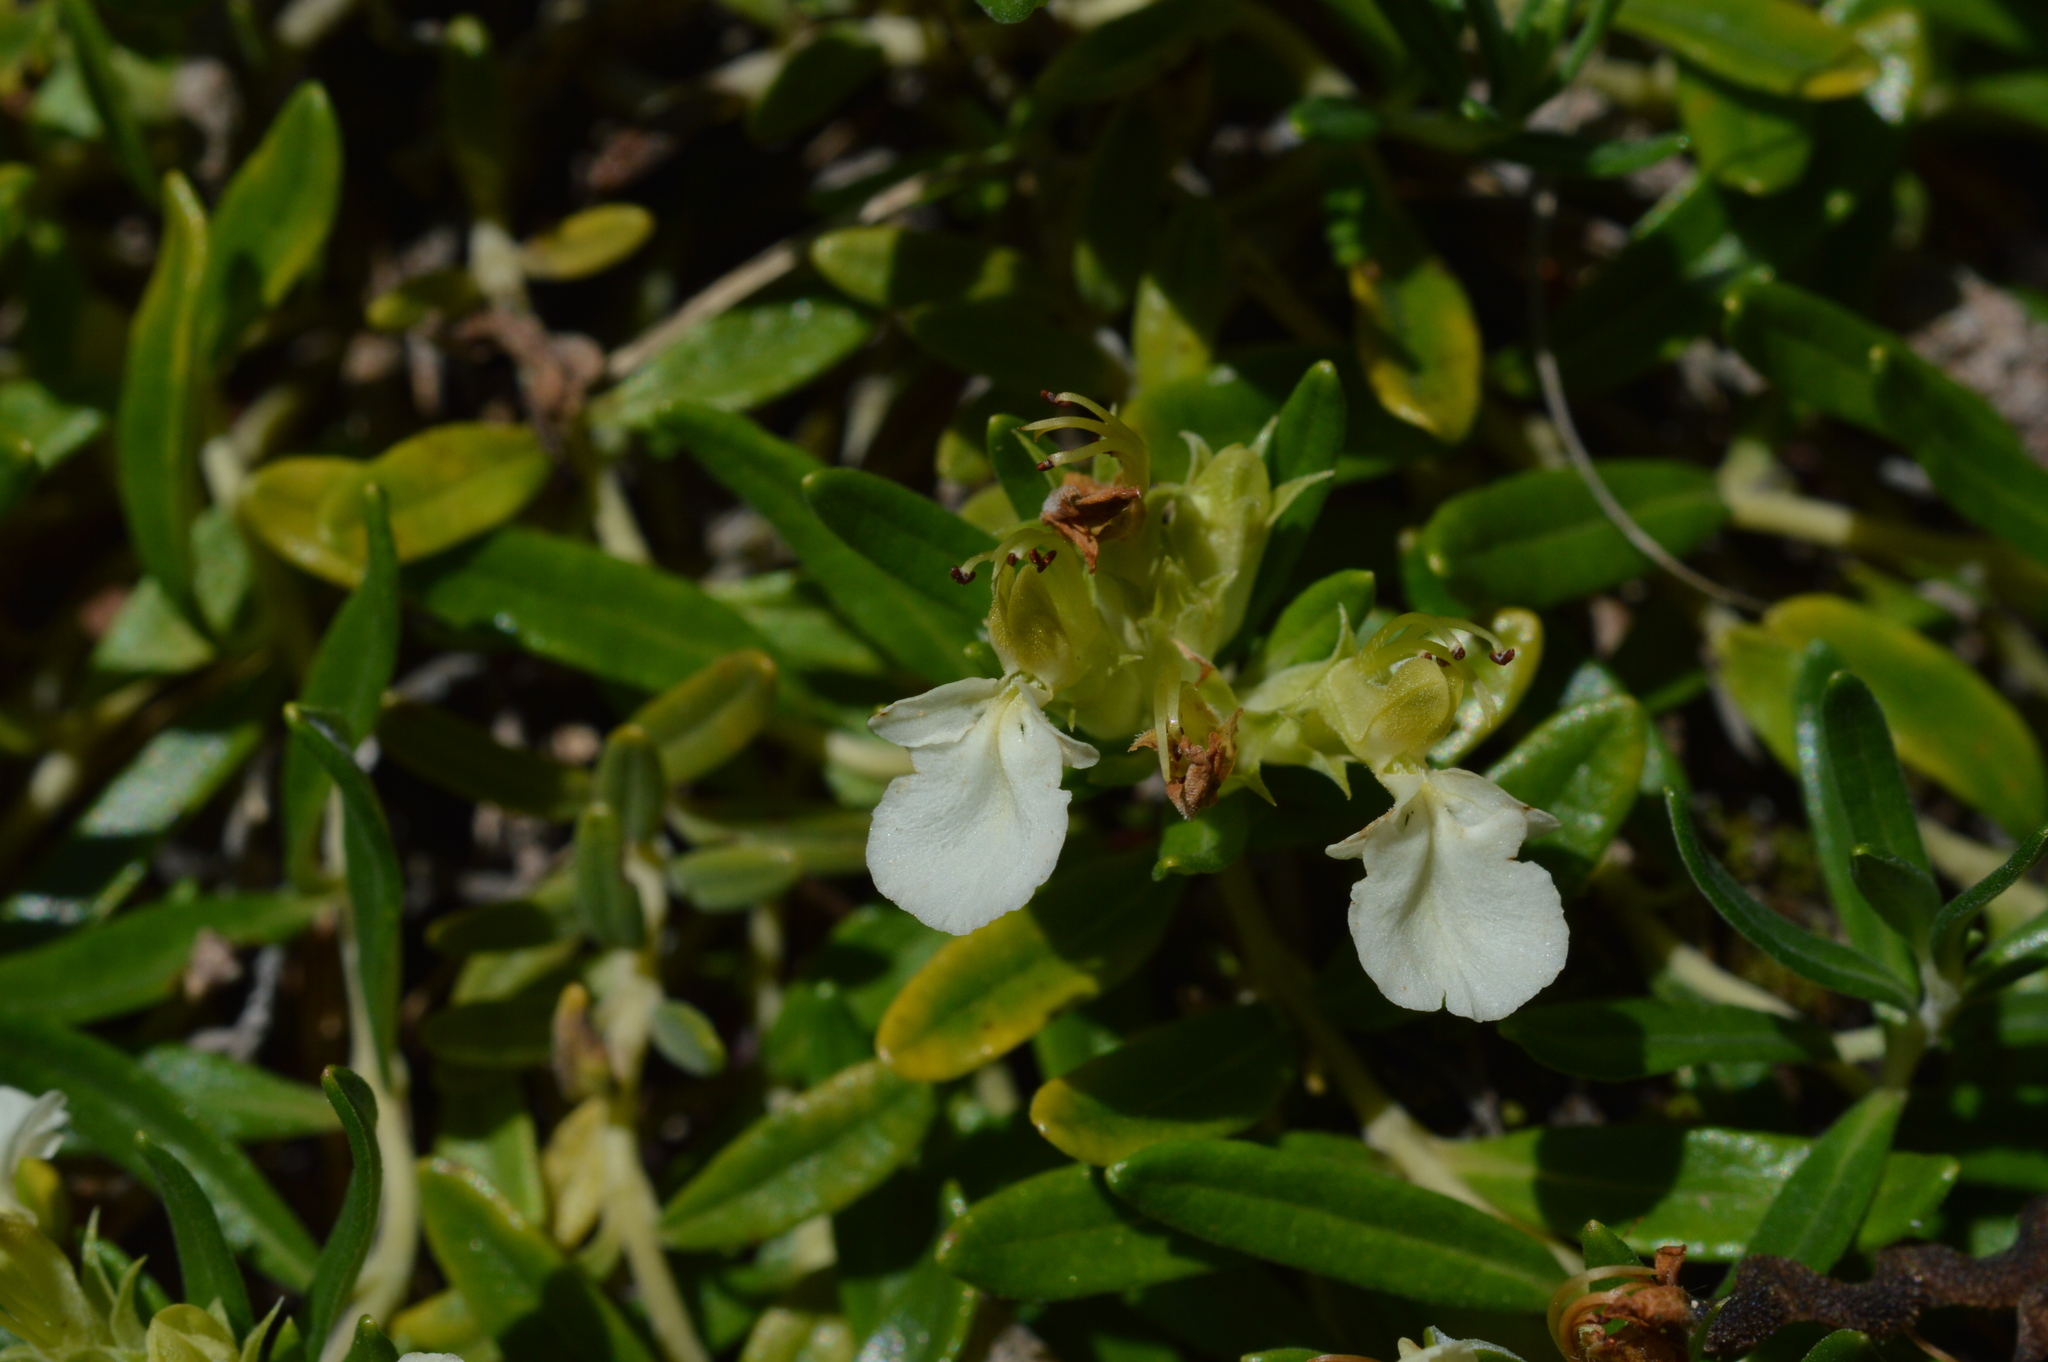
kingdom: Plantae
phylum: Tracheophyta
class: Magnoliopsida
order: Lamiales
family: Lamiaceae
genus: Teucrium
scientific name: Teucrium montanum
